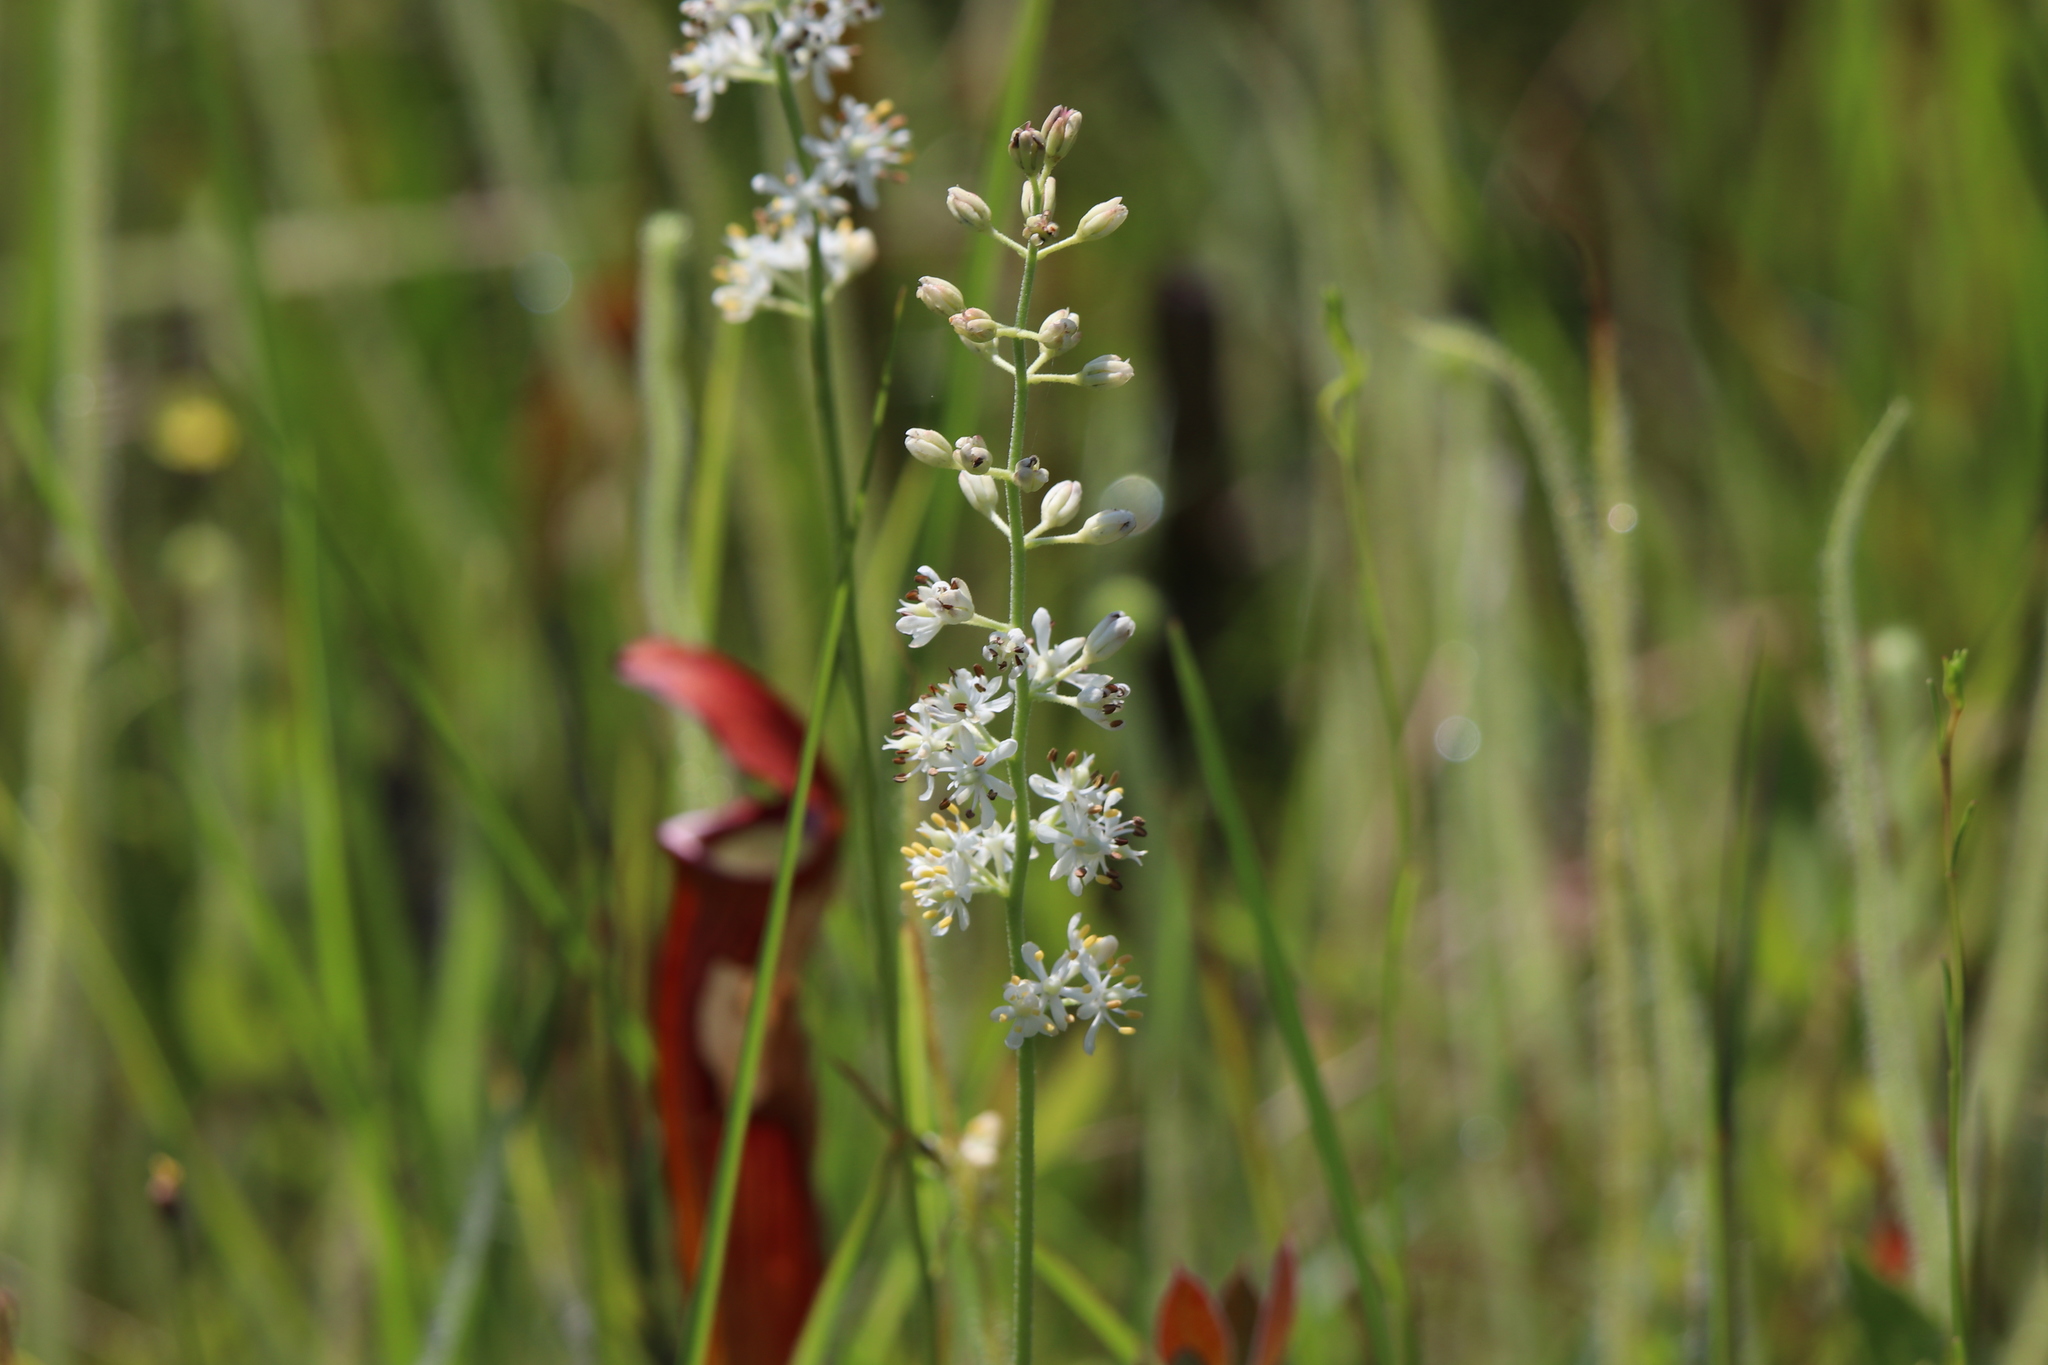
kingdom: Plantae
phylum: Tracheophyta
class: Liliopsida
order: Alismatales
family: Tofieldiaceae
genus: Triantha
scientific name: Triantha racemosa
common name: Coastal false asphodel
